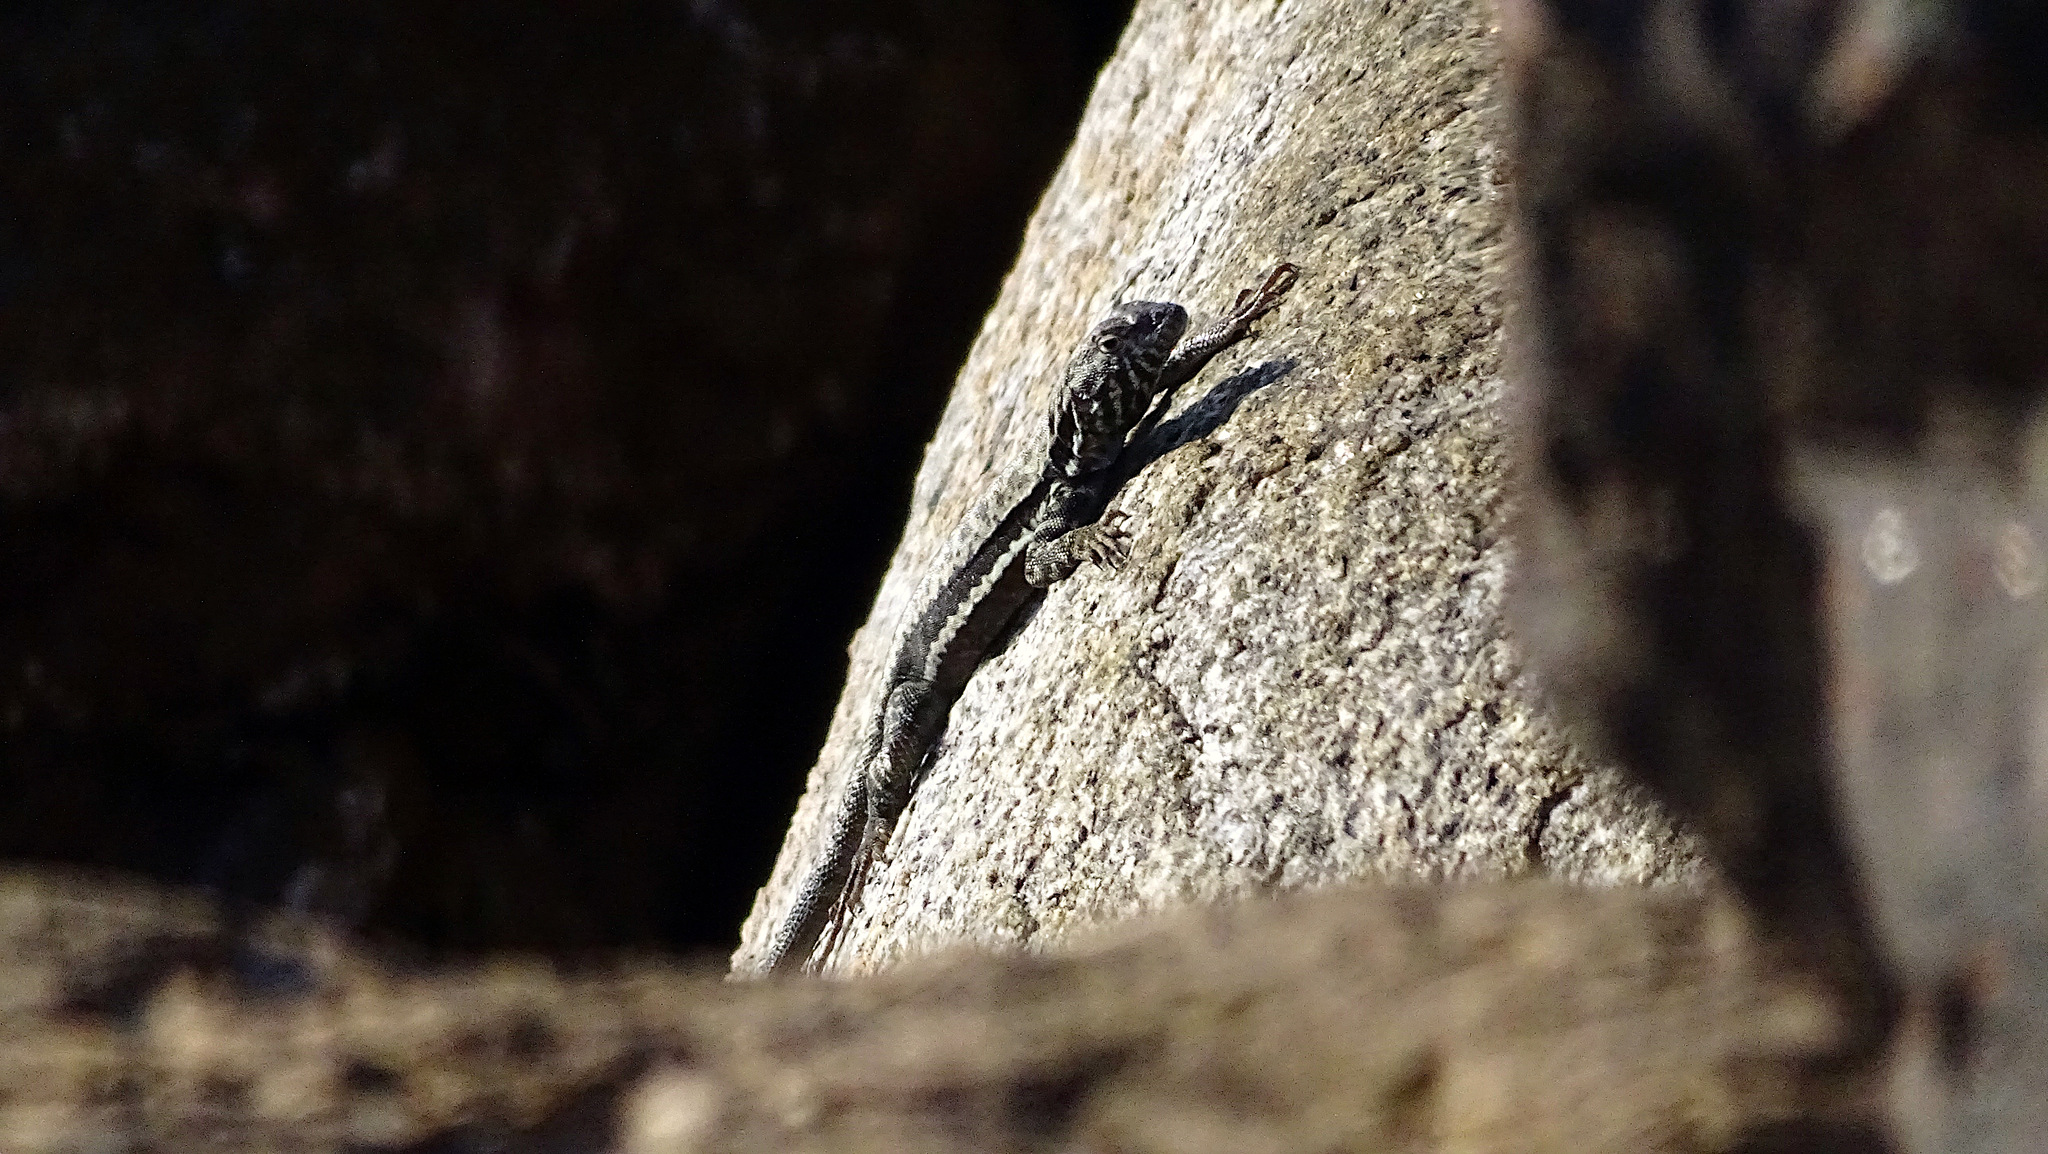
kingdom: Animalia
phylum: Chordata
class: Squamata
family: Tropiduridae
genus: Microlophus
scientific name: Microlophus atacamensis
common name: Atacamen pacific iguana
